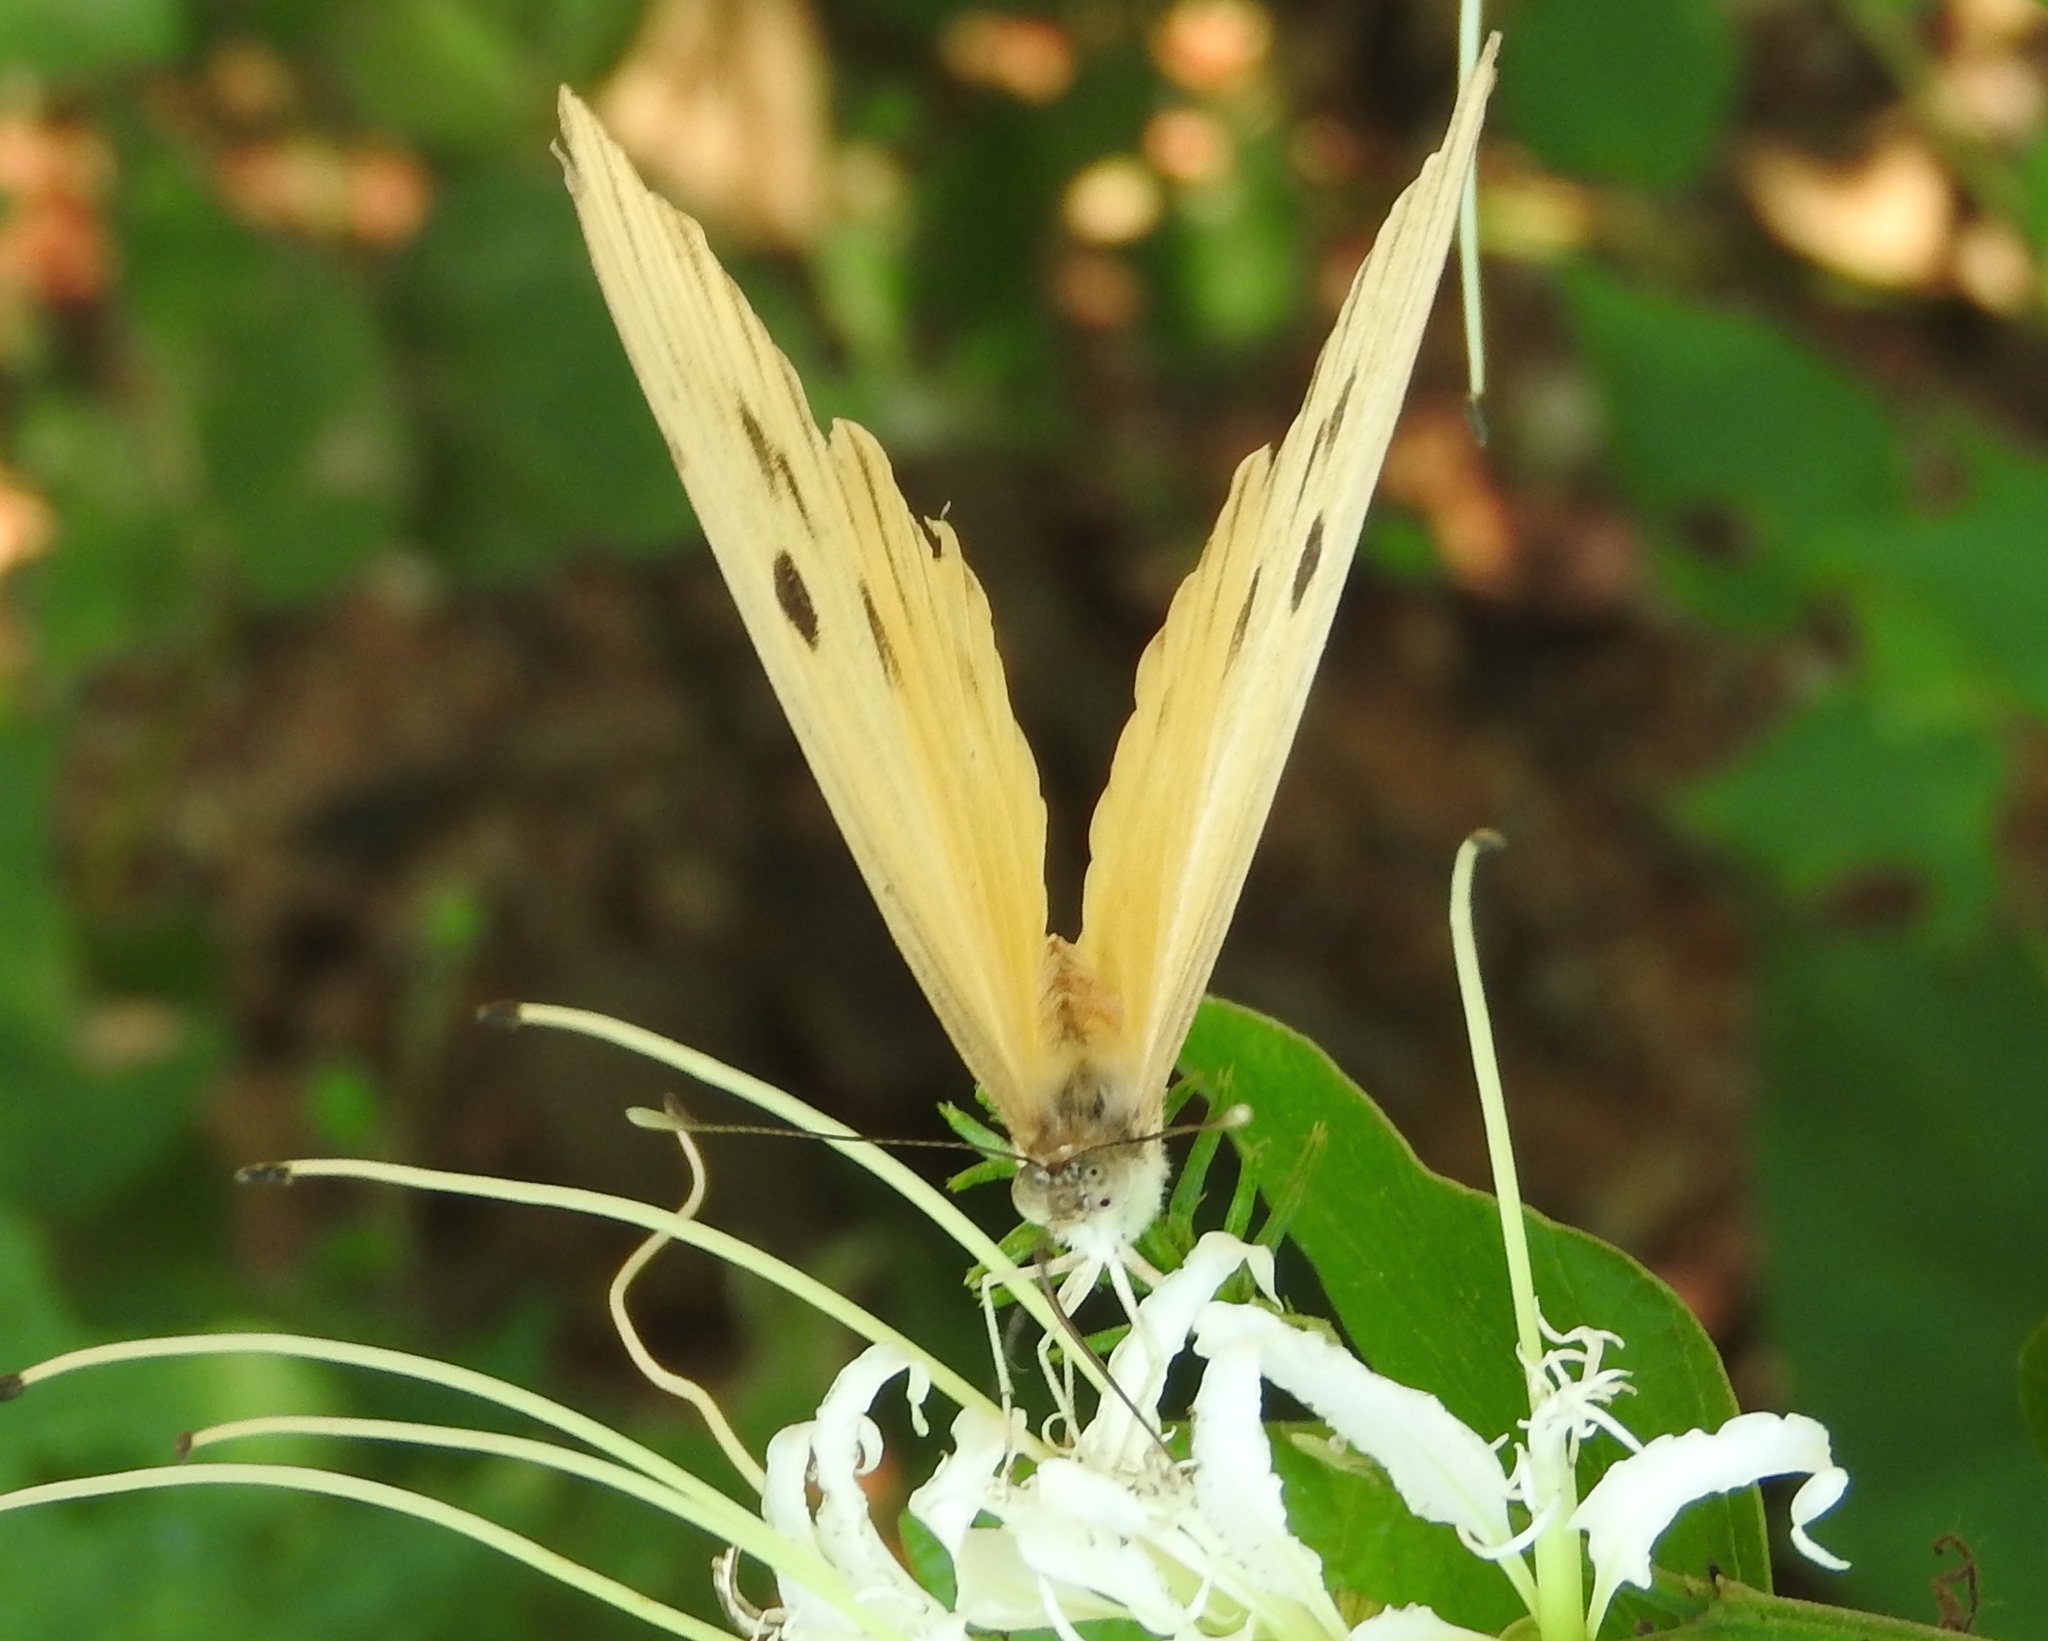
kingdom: Animalia
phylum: Arthropoda
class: Insecta
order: Lepidoptera
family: Pieridae
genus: Ganyra
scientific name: Ganyra josephina
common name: Giant white
